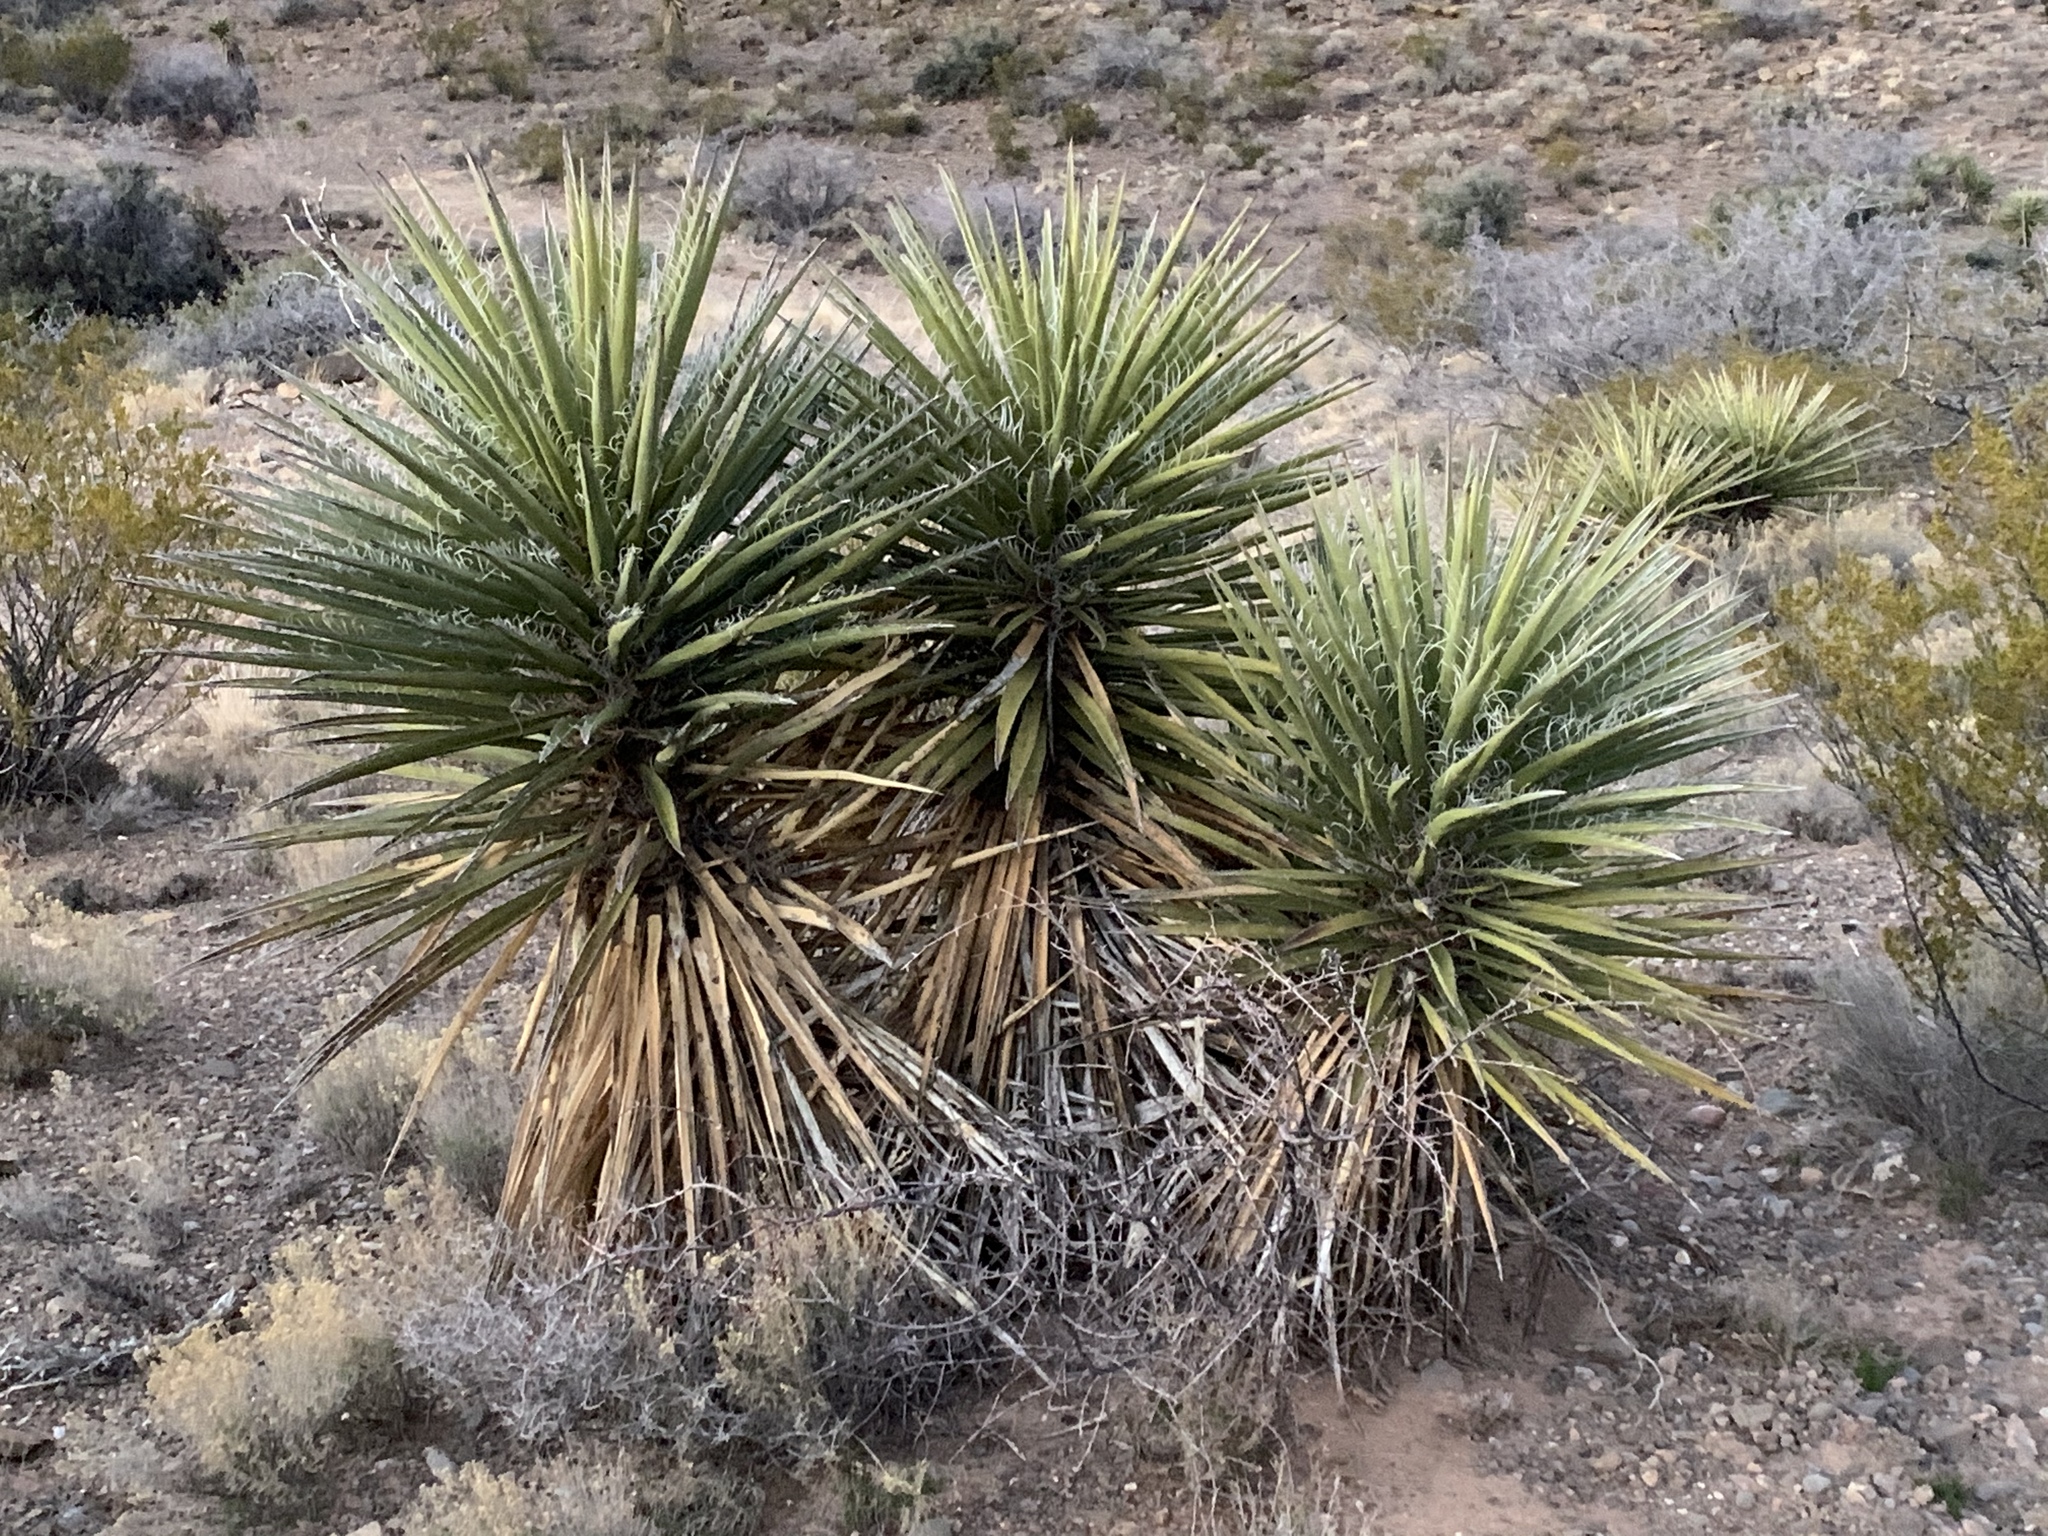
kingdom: Plantae
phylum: Tracheophyta
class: Liliopsida
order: Asparagales
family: Asparagaceae
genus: Yucca
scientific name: Yucca treculiana
